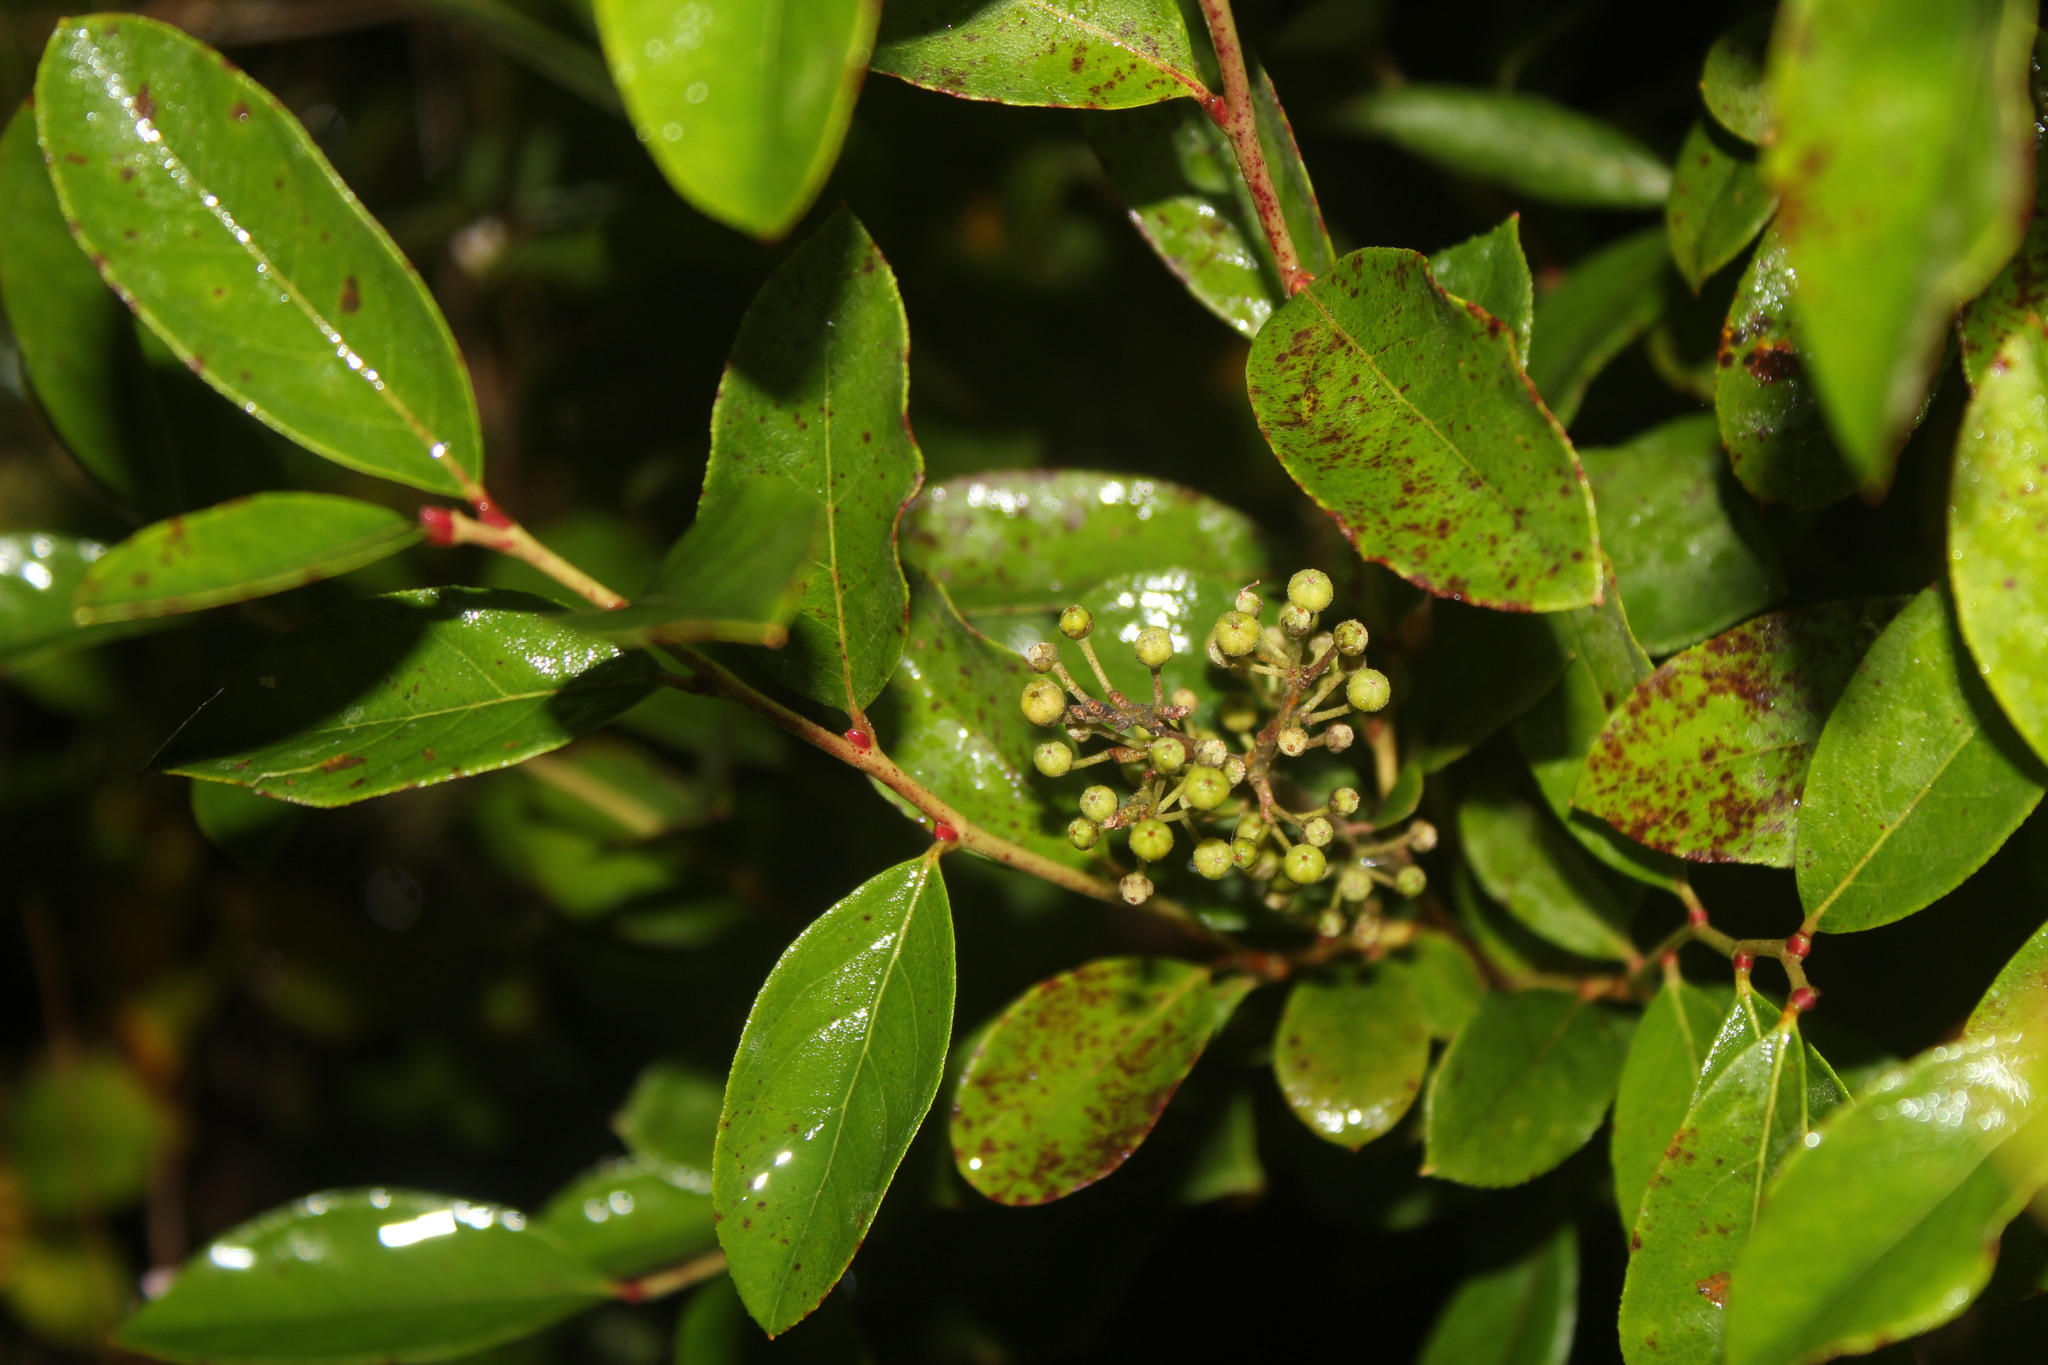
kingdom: Plantae
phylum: Tracheophyta
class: Magnoliopsida
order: Ericales
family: Ericaceae
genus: Lyonia
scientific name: Lyonia ligustrina
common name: Maleberry
